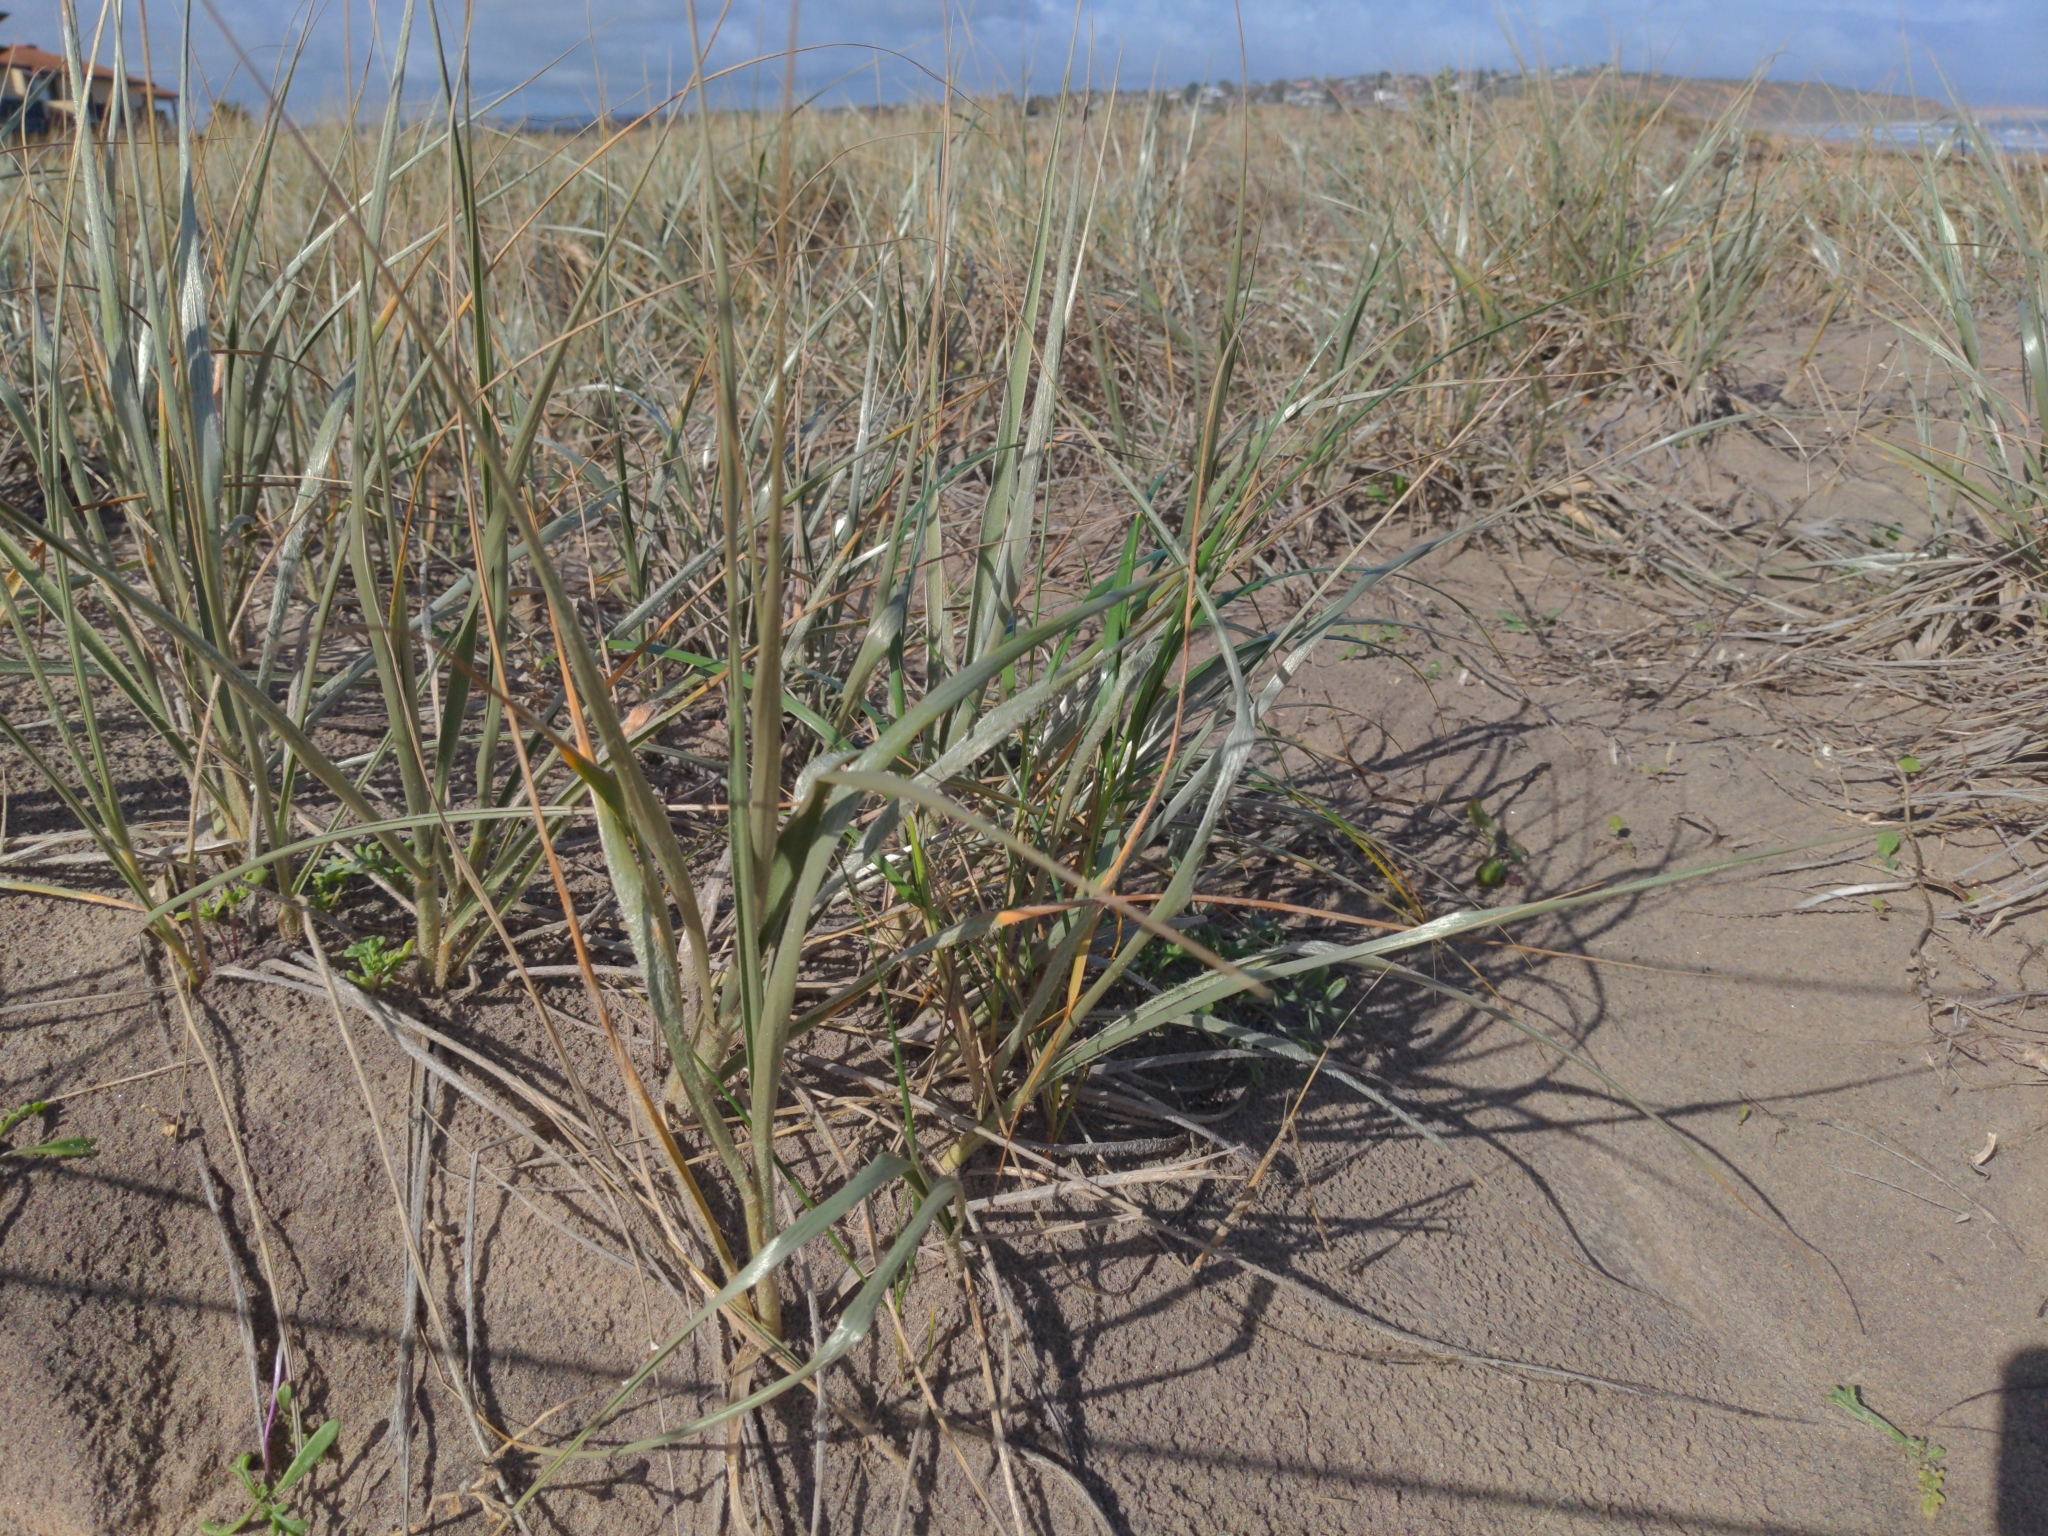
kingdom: Plantae
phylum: Tracheophyta
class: Liliopsida
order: Poales
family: Poaceae
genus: Spinifex
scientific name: Spinifex sericeus
